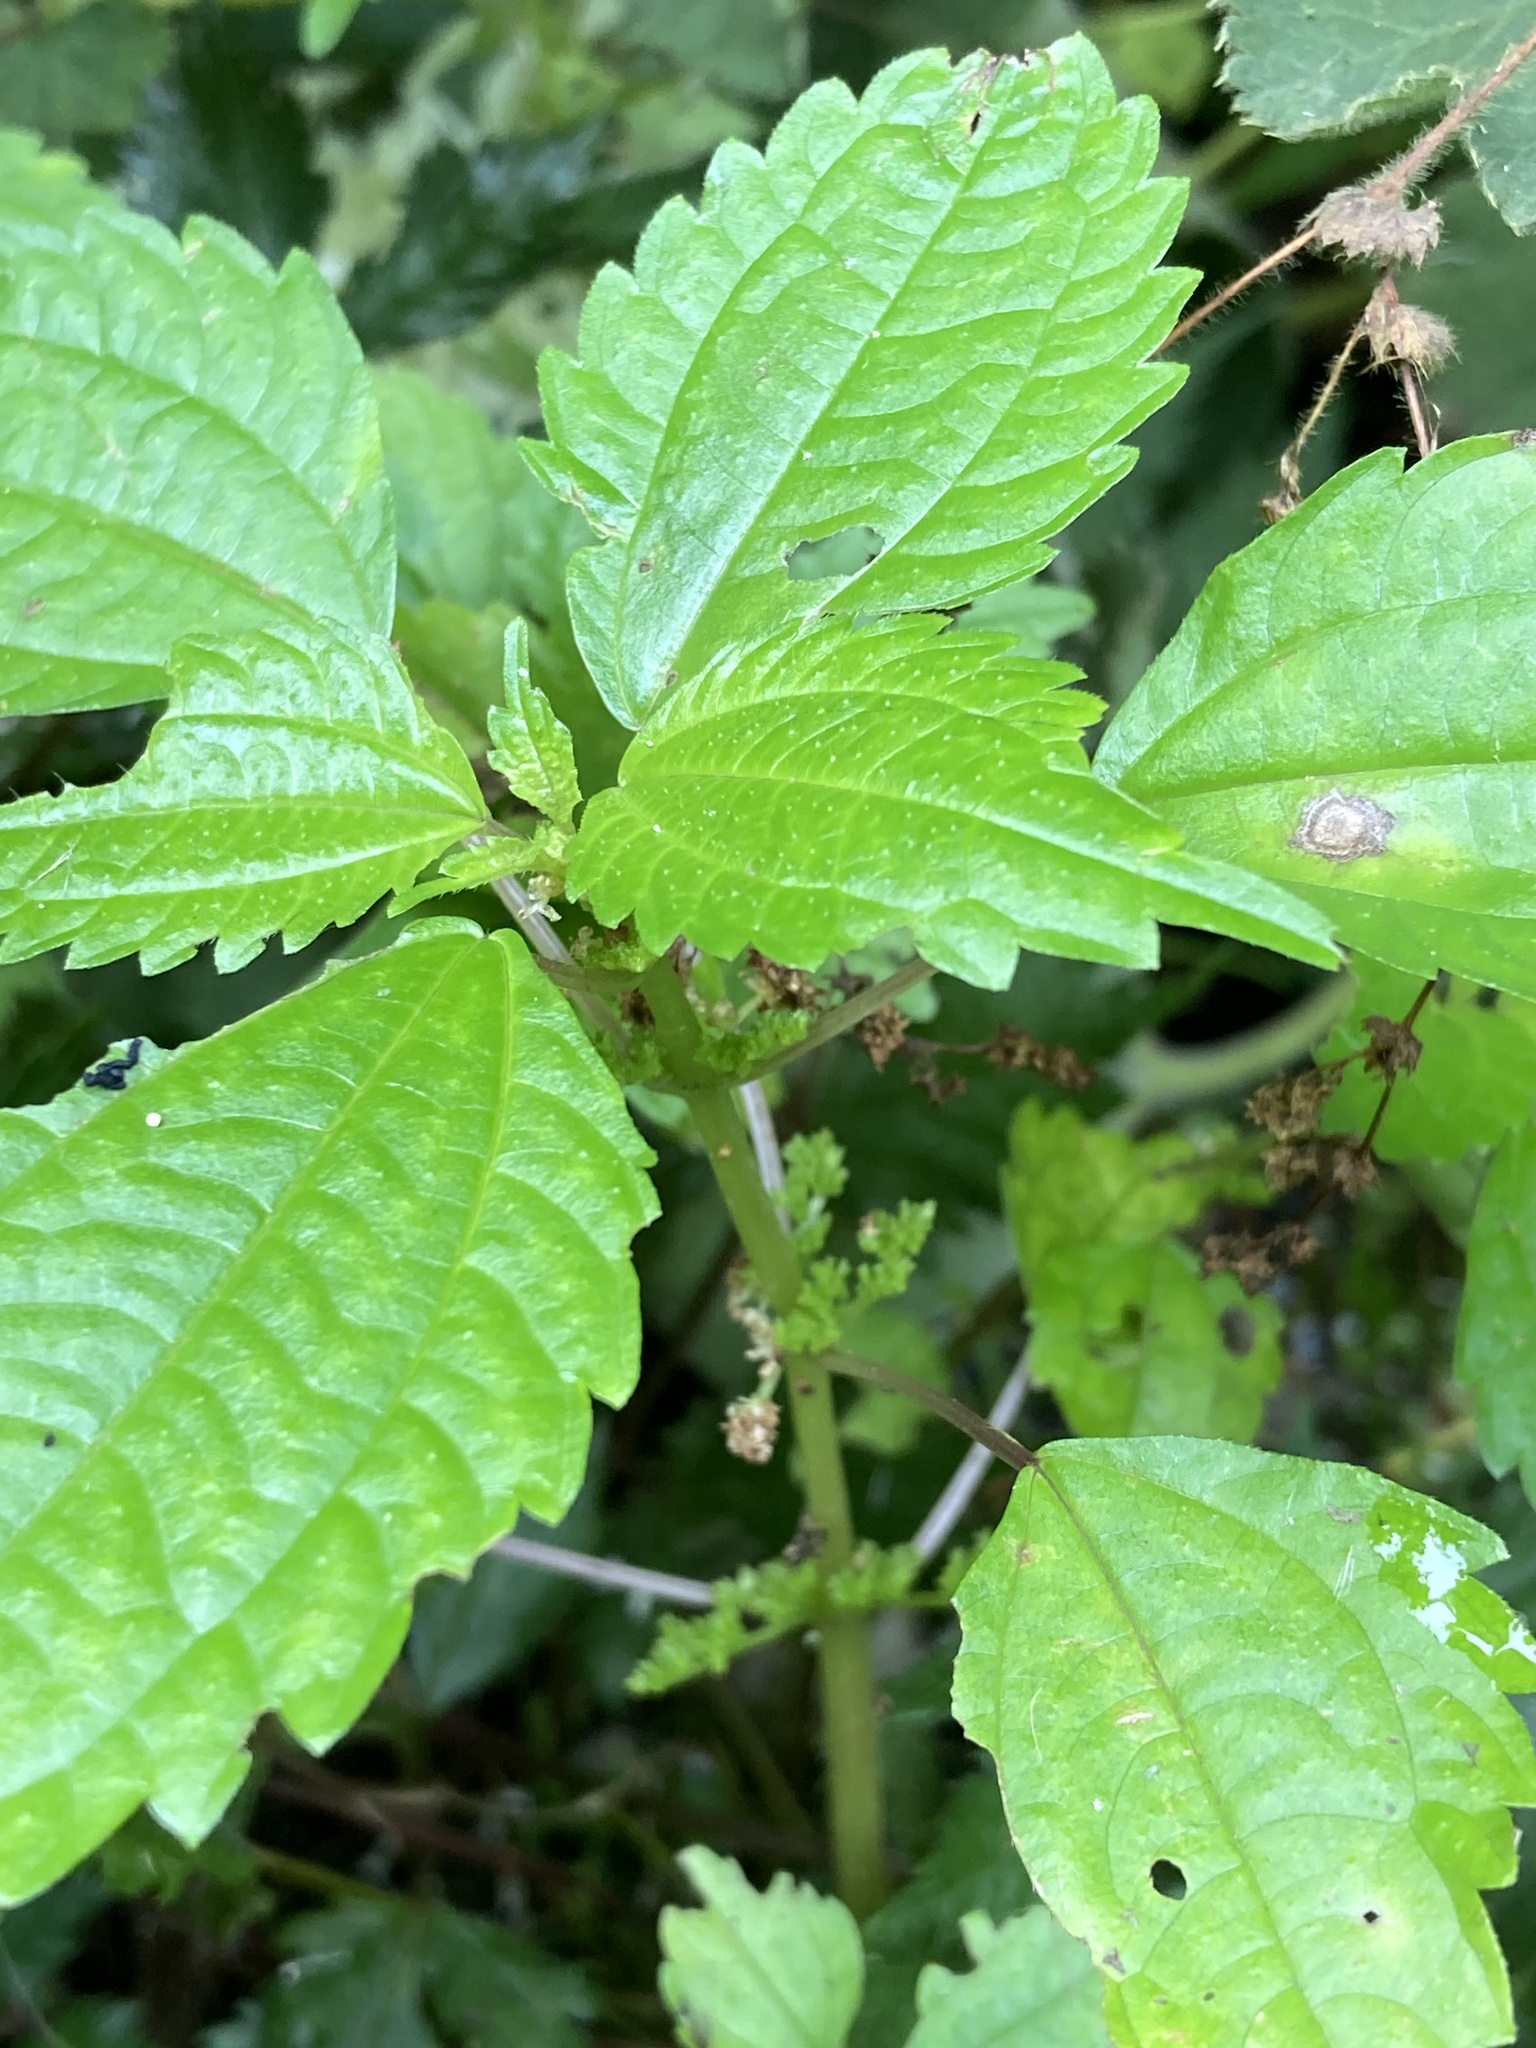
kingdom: Plantae
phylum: Tracheophyta
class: Magnoliopsida
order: Rosales
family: Urticaceae
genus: Pilea
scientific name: Pilea pumila
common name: Clearweed
